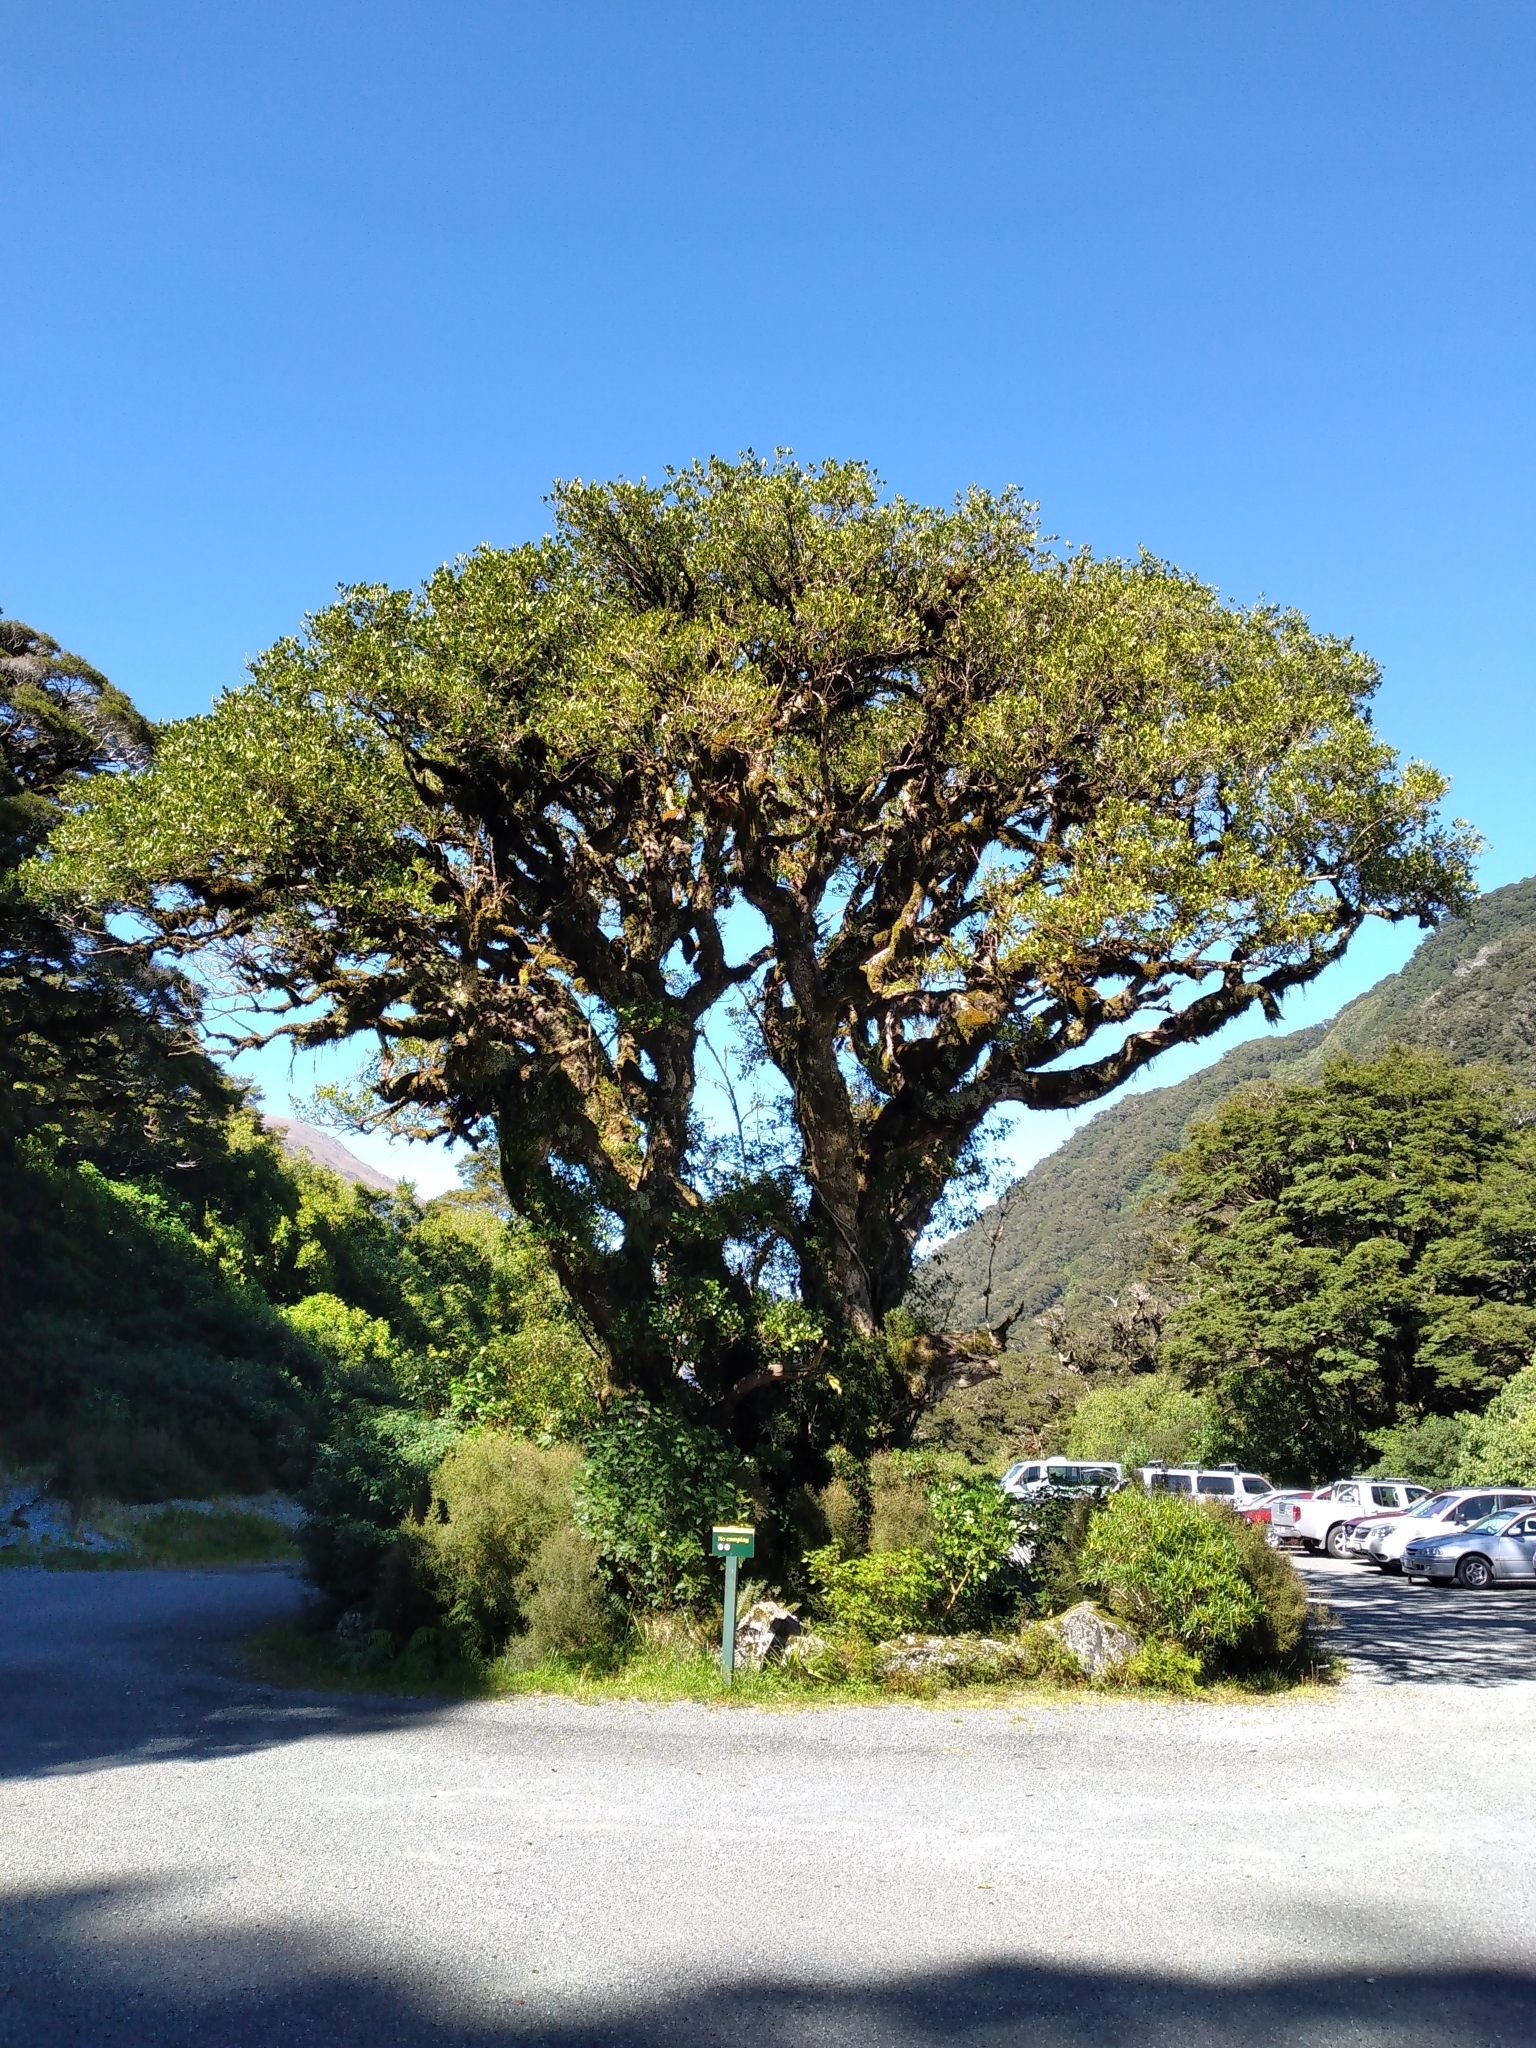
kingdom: Plantae
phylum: Tracheophyta
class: Magnoliopsida
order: Apiales
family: Griseliniaceae
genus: Griselinia
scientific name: Griselinia littoralis
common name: New zealand broadleaf
